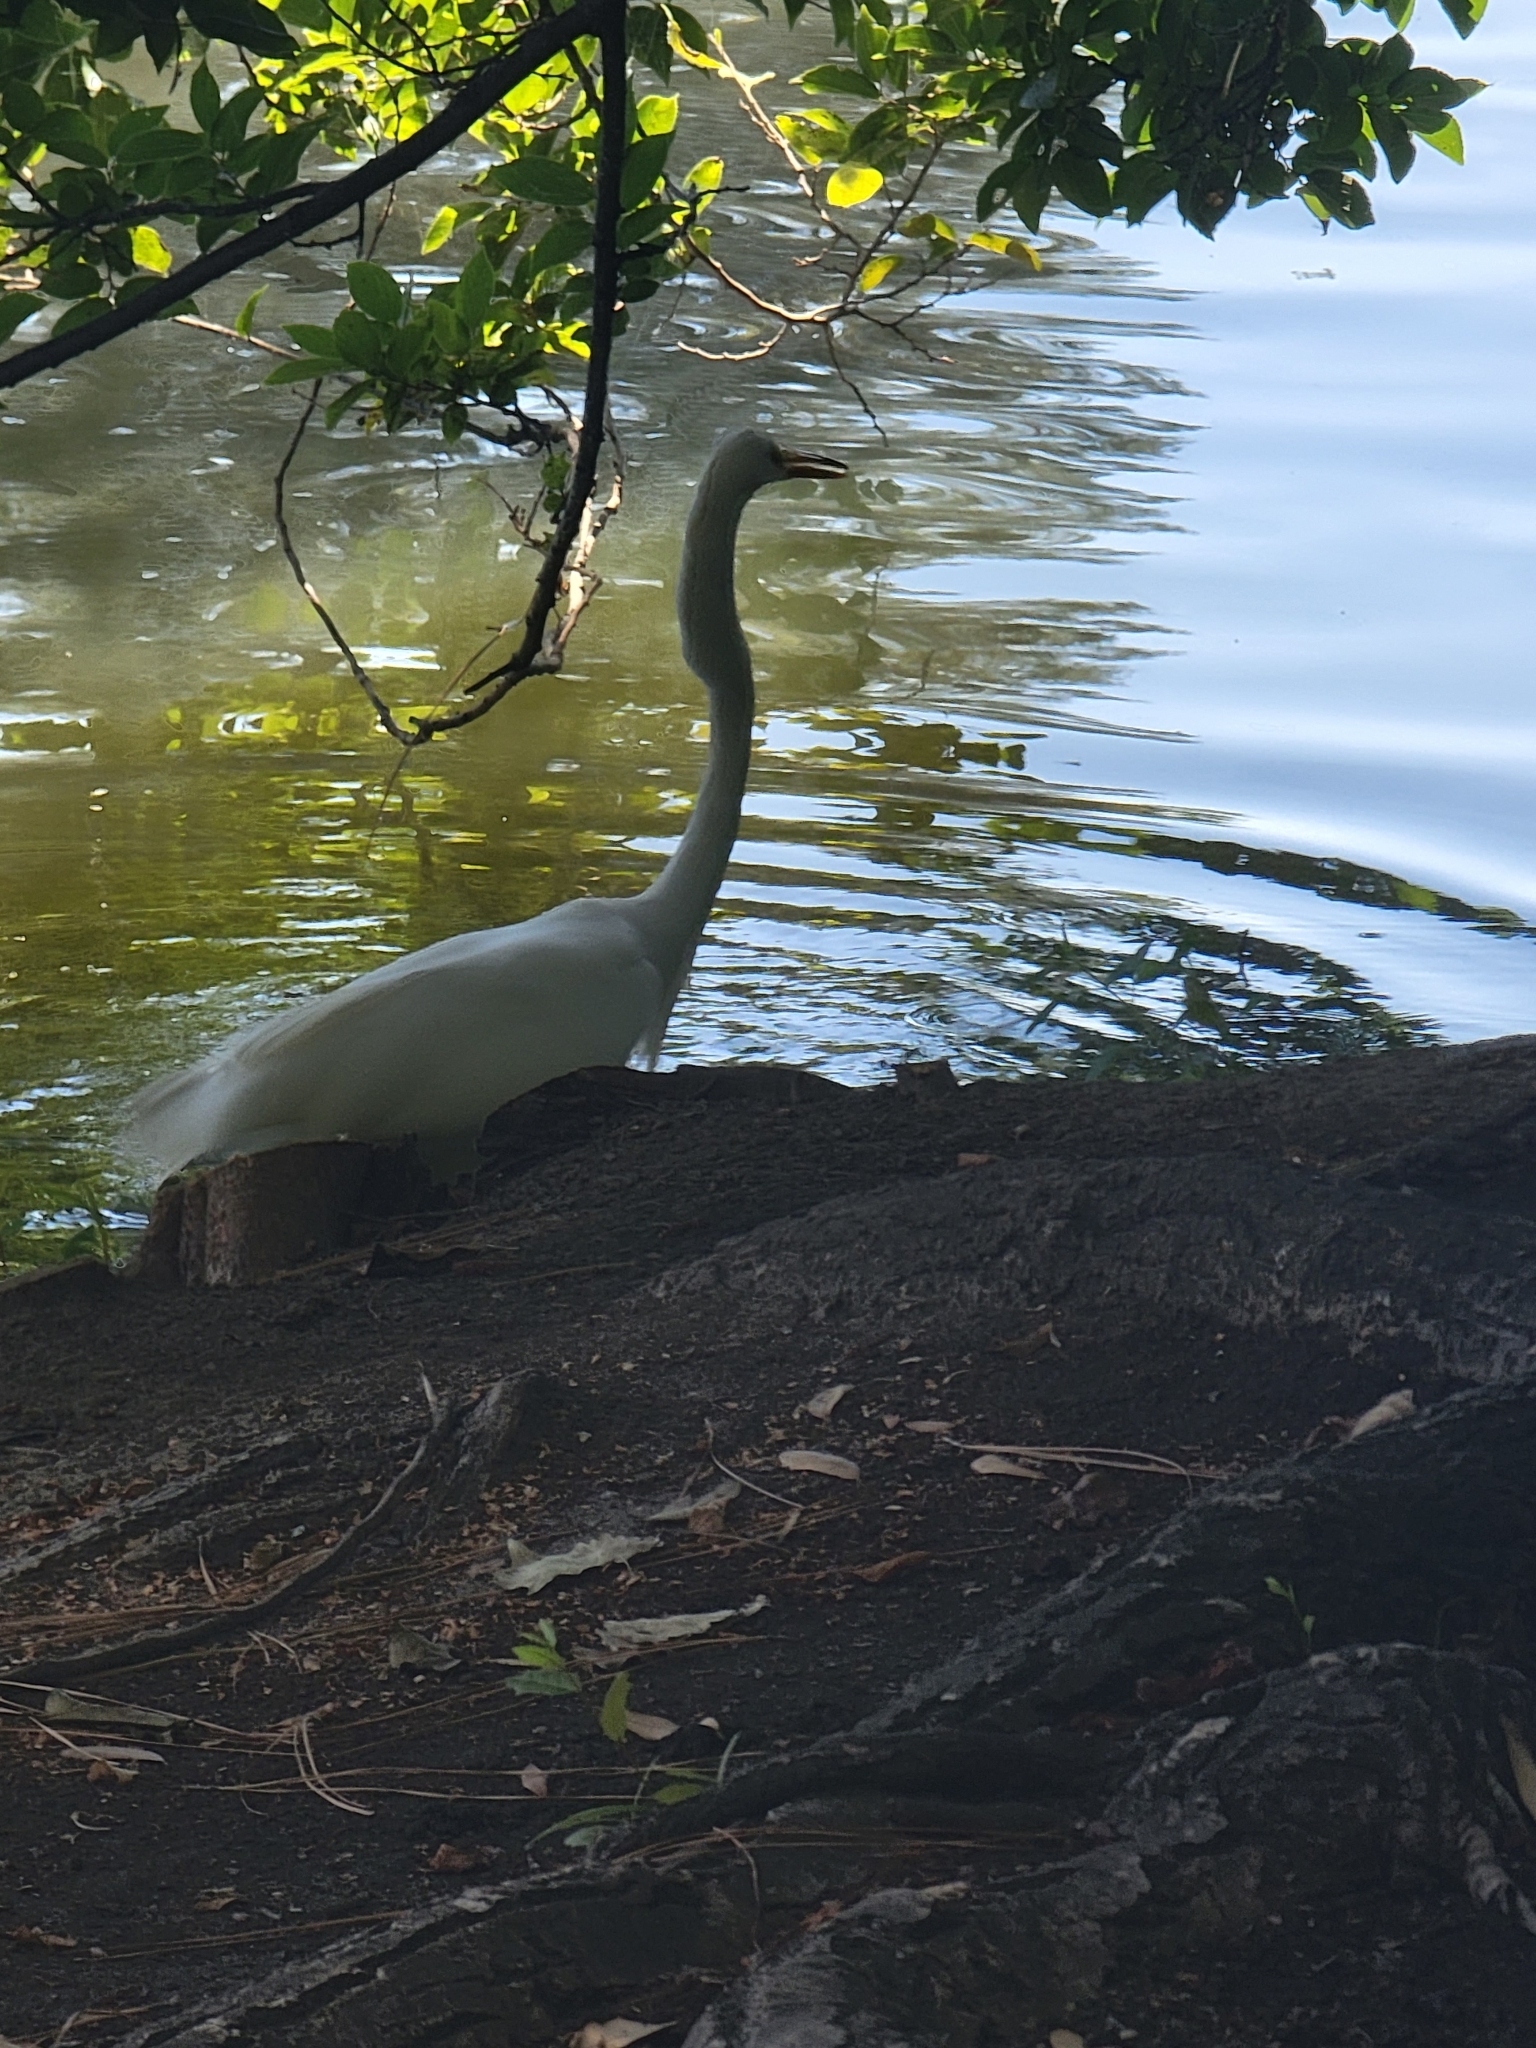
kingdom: Animalia
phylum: Chordata
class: Aves
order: Pelecaniformes
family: Ardeidae
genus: Ardea
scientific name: Ardea alba
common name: Great egret
